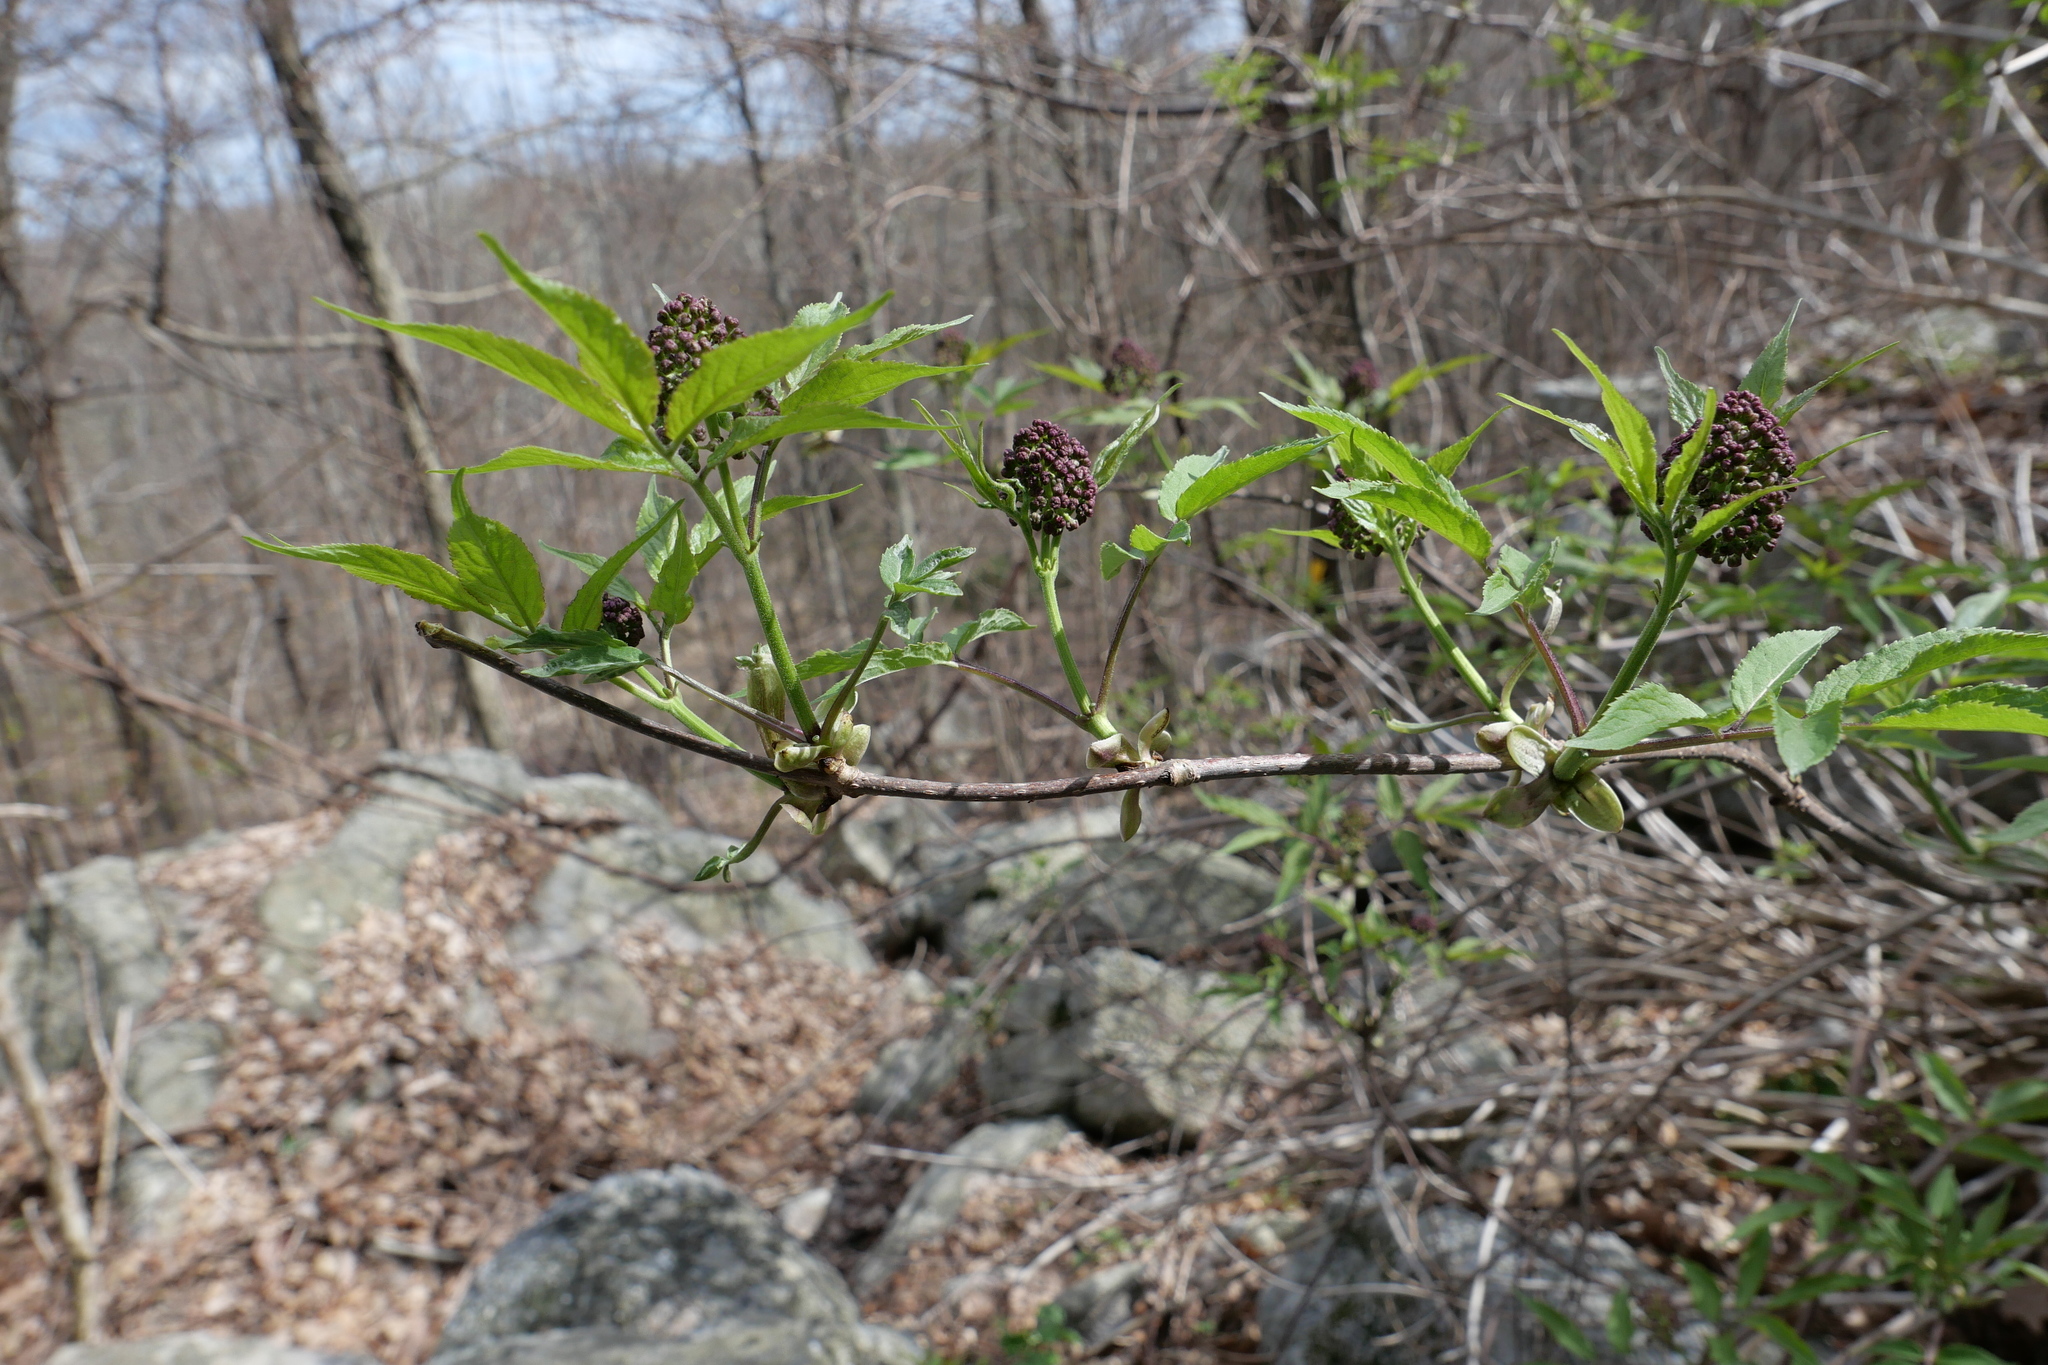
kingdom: Plantae
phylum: Tracheophyta
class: Magnoliopsida
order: Dipsacales
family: Viburnaceae
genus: Sambucus
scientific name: Sambucus racemosa
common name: Red-berried elder
